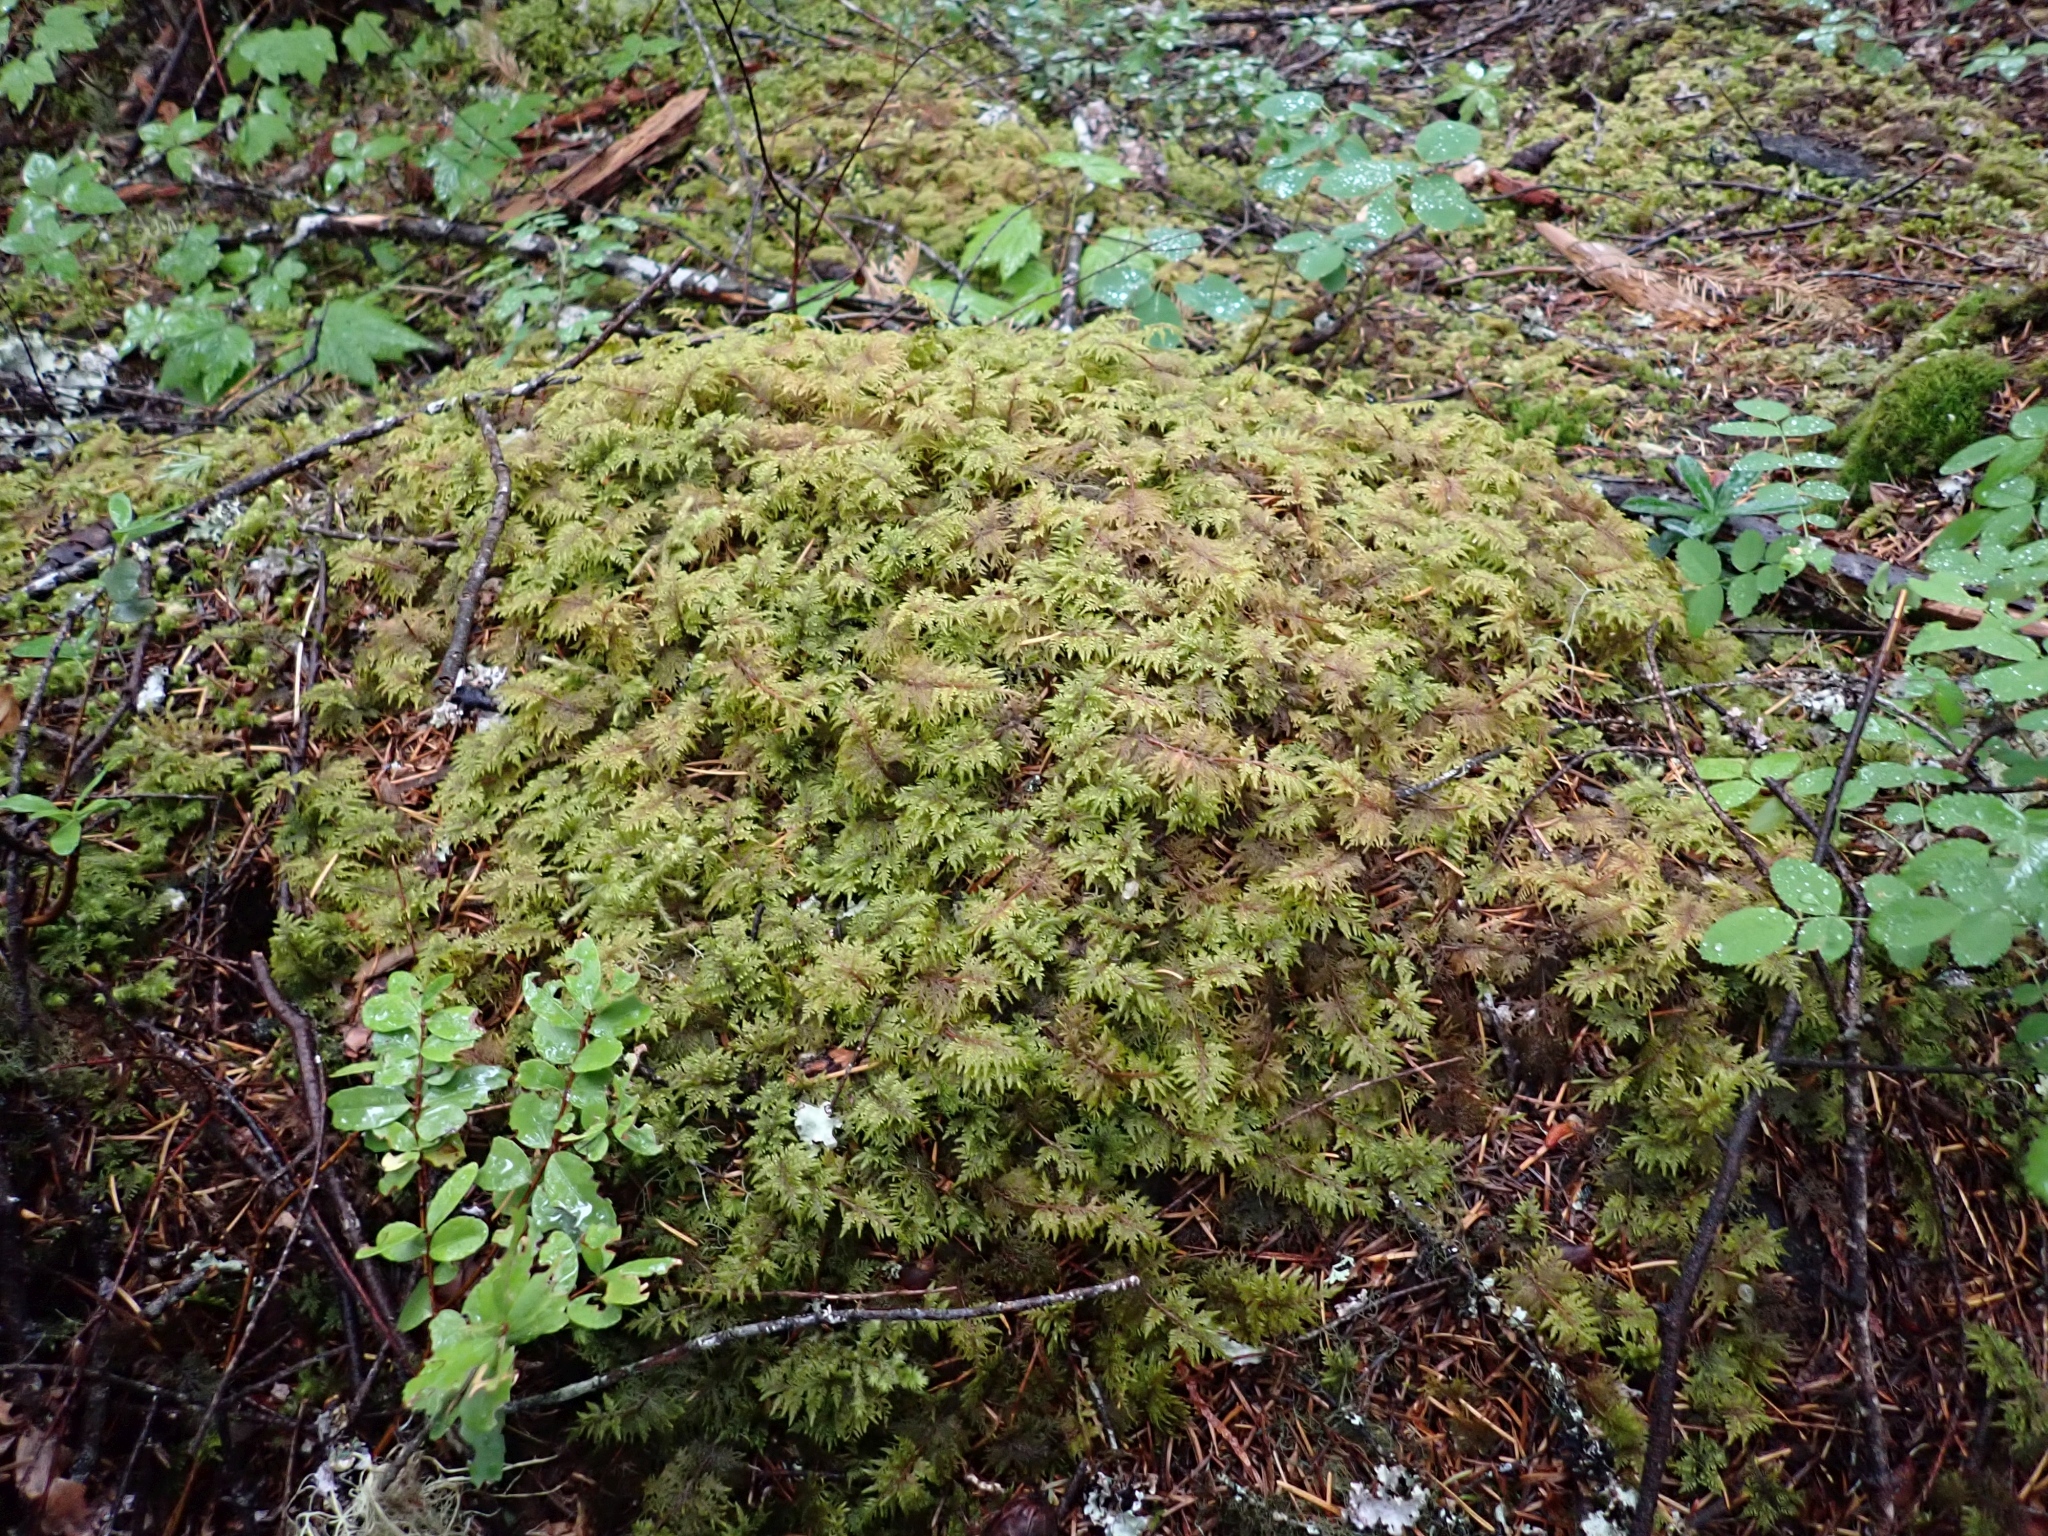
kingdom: Plantae
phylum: Bryophyta
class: Bryopsida
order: Hypnales
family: Hylocomiaceae
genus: Hylocomium
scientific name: Hylocomium splendens
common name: Stairstep moss
